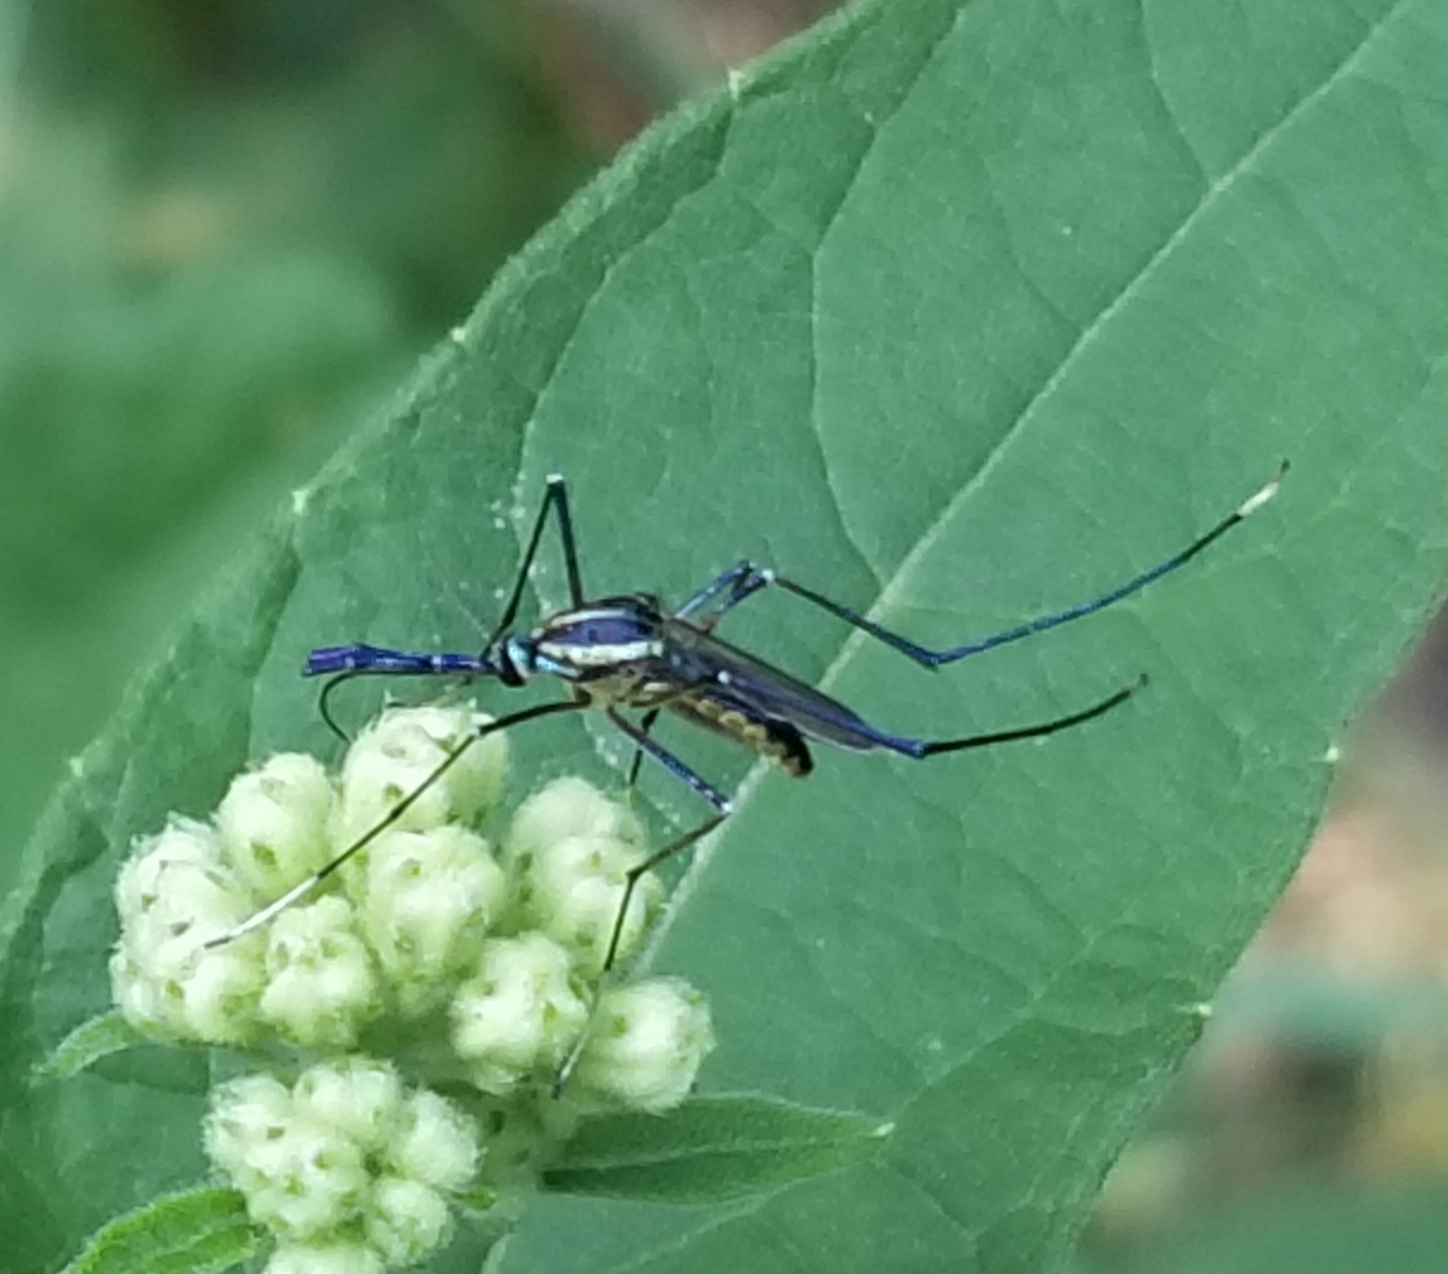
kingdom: Animalia
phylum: Arthropoda
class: Insecta
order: Diptera
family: Culicidae
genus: Toxorhynchites
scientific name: Toxorhynchites rutilus
